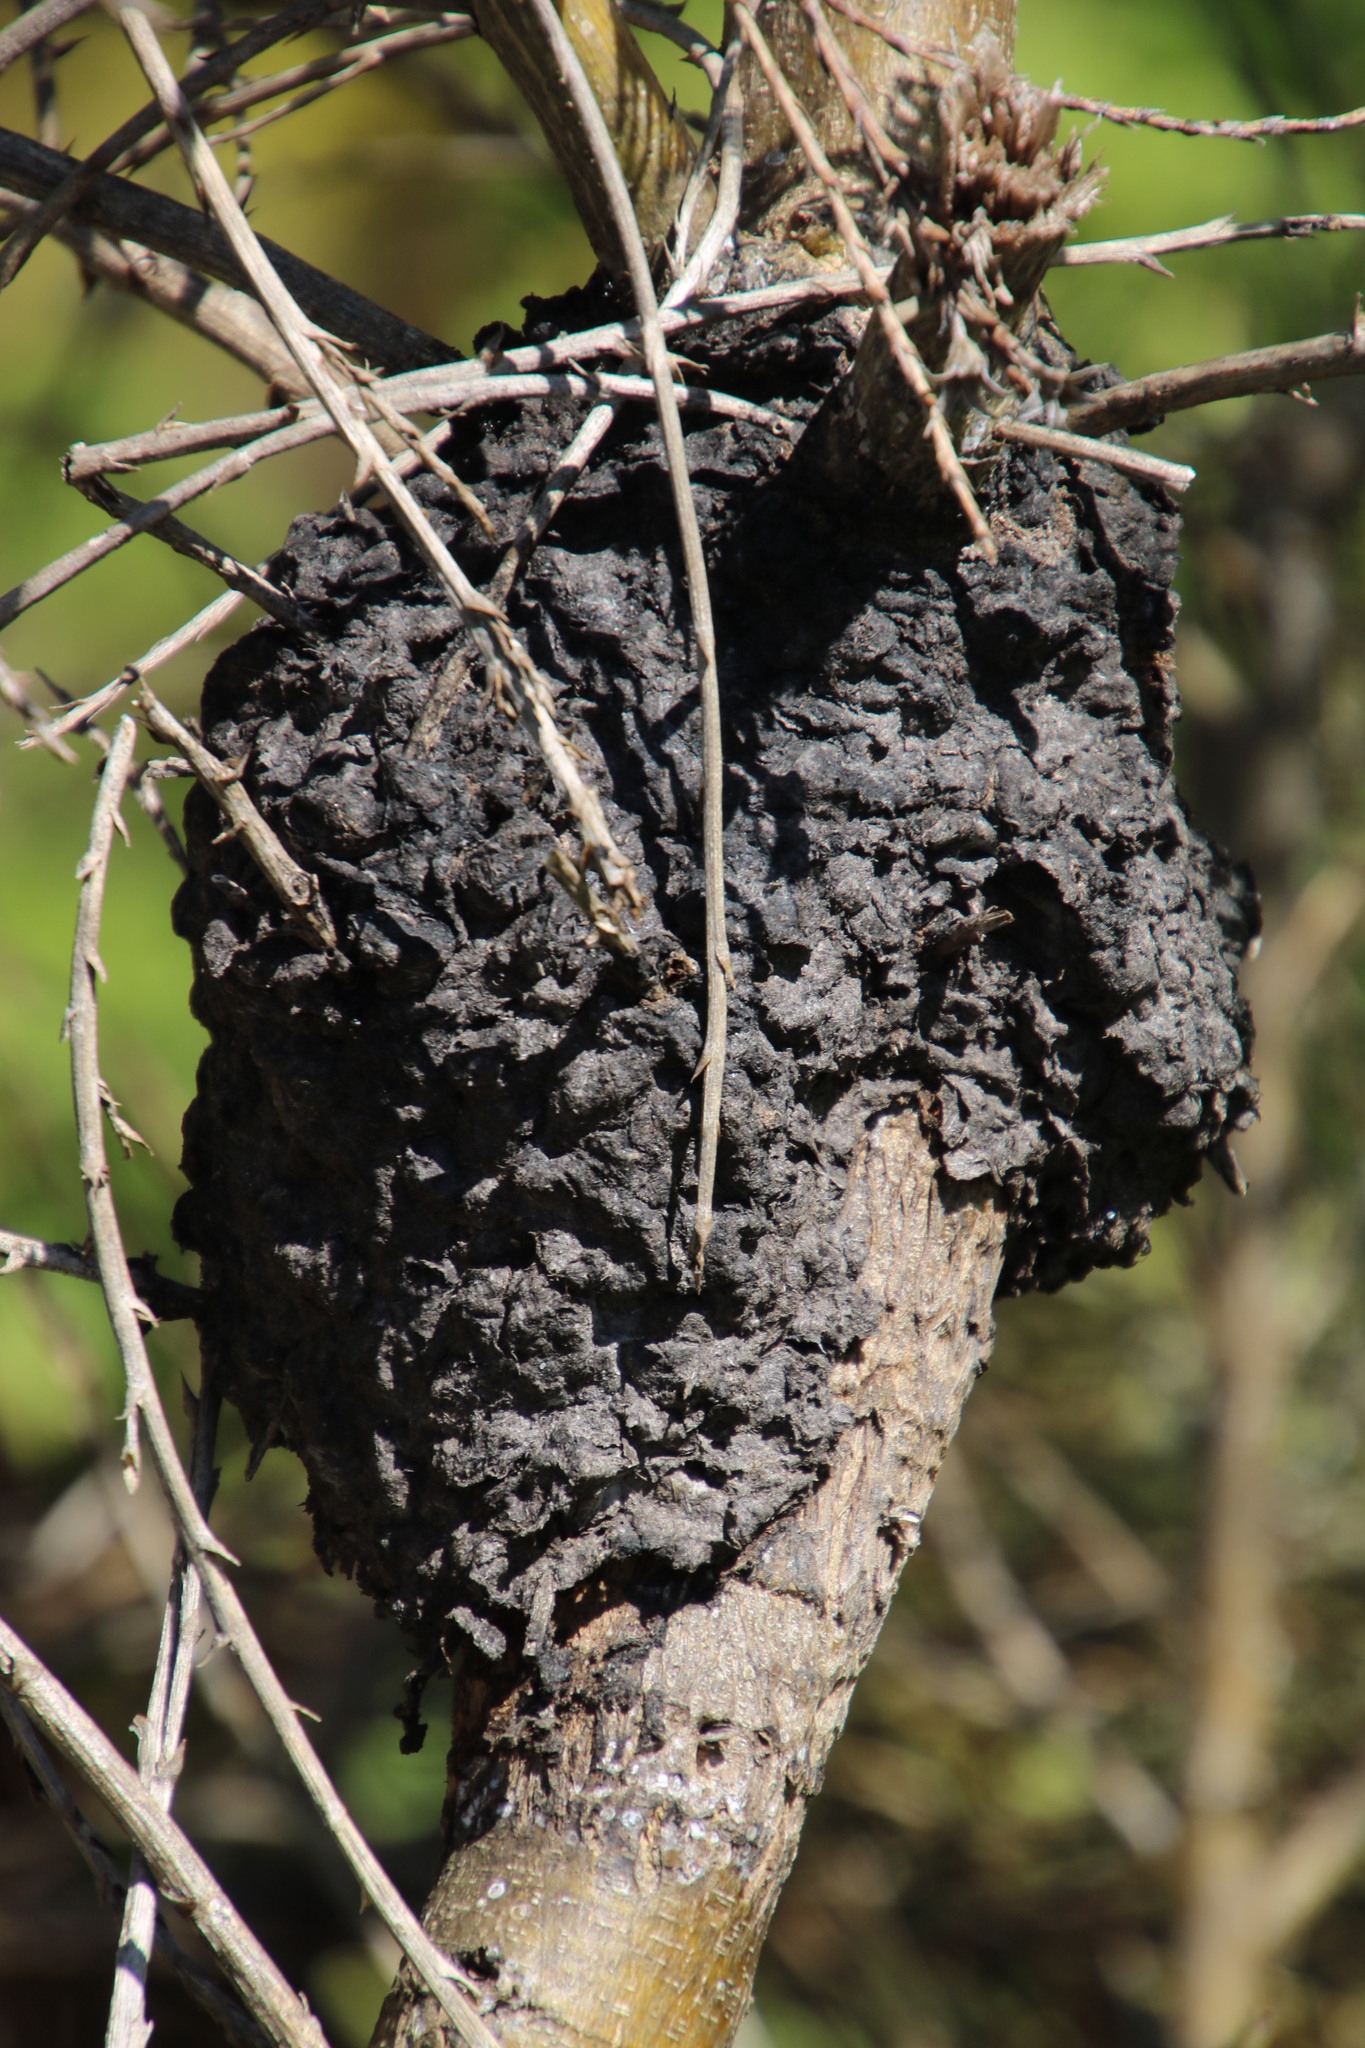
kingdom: Animalia
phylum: Arthropoda
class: Insecta
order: Hymenoptera
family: Formicidae
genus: Crematogaster
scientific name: Crematogaster peringueyi
